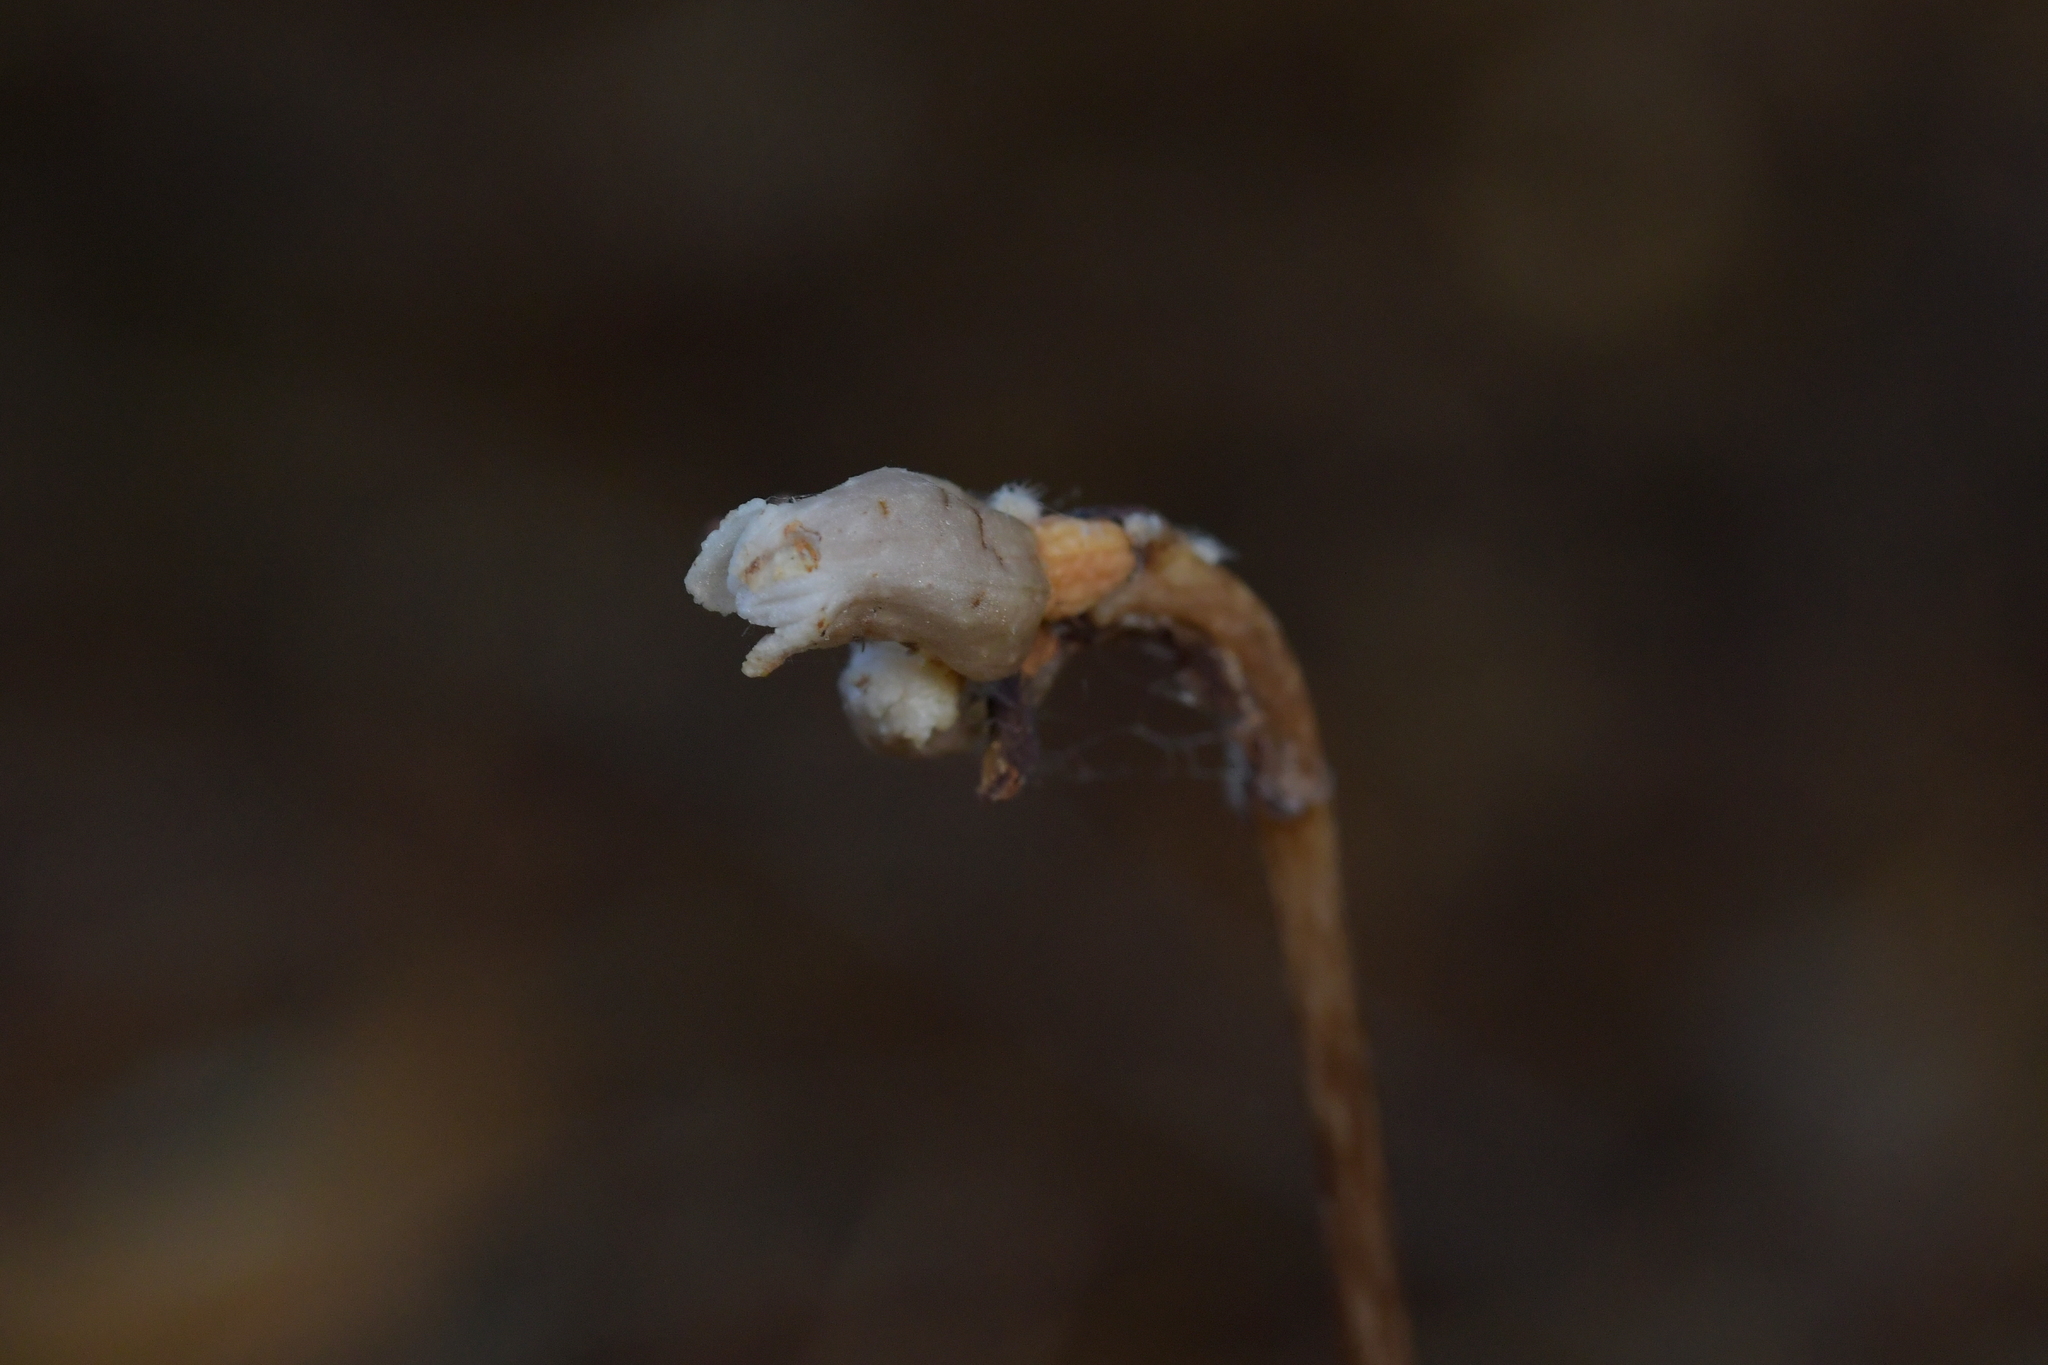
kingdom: Plantae
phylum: Tracheophyta
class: Liliopsida
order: Asparagales
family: Orchidaceae
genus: Gastrodia
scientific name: Gastrodia minor
